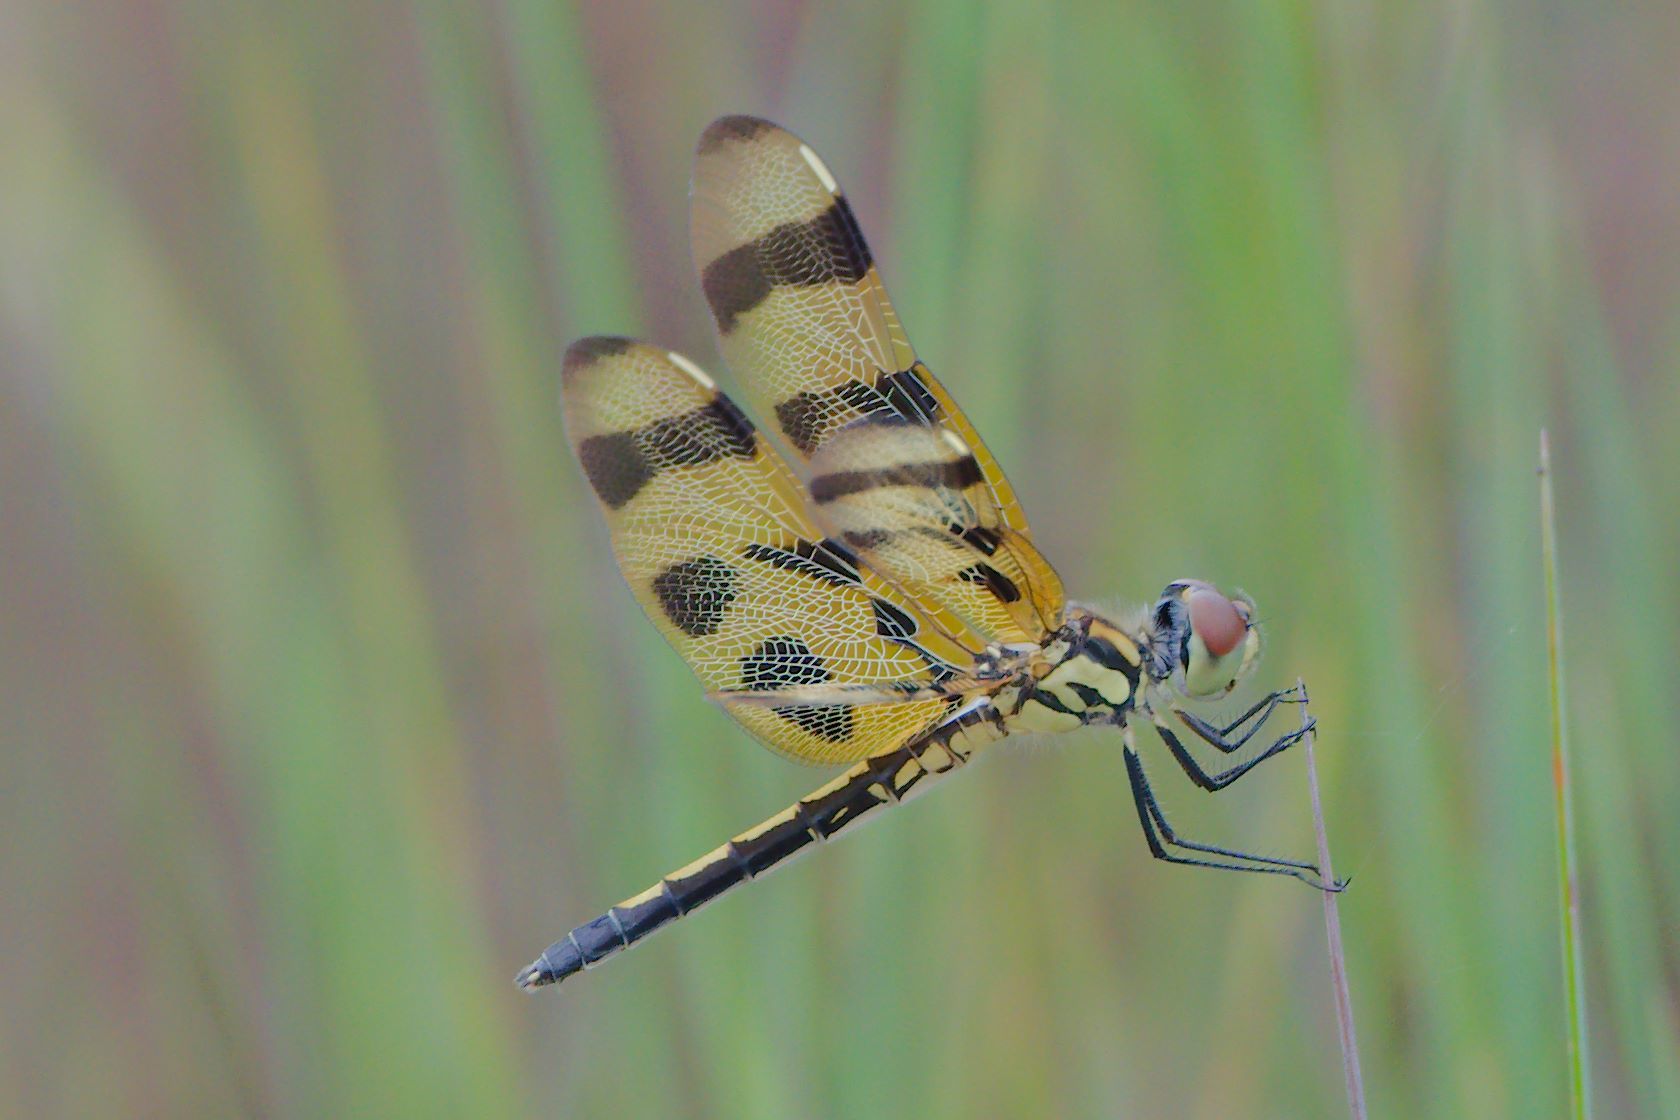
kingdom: Animalia
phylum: Arthropoda
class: Insecta
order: Odonata
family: Libellulidae
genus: Celithemis
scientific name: Celithemis eponina
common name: Halloween pennant
